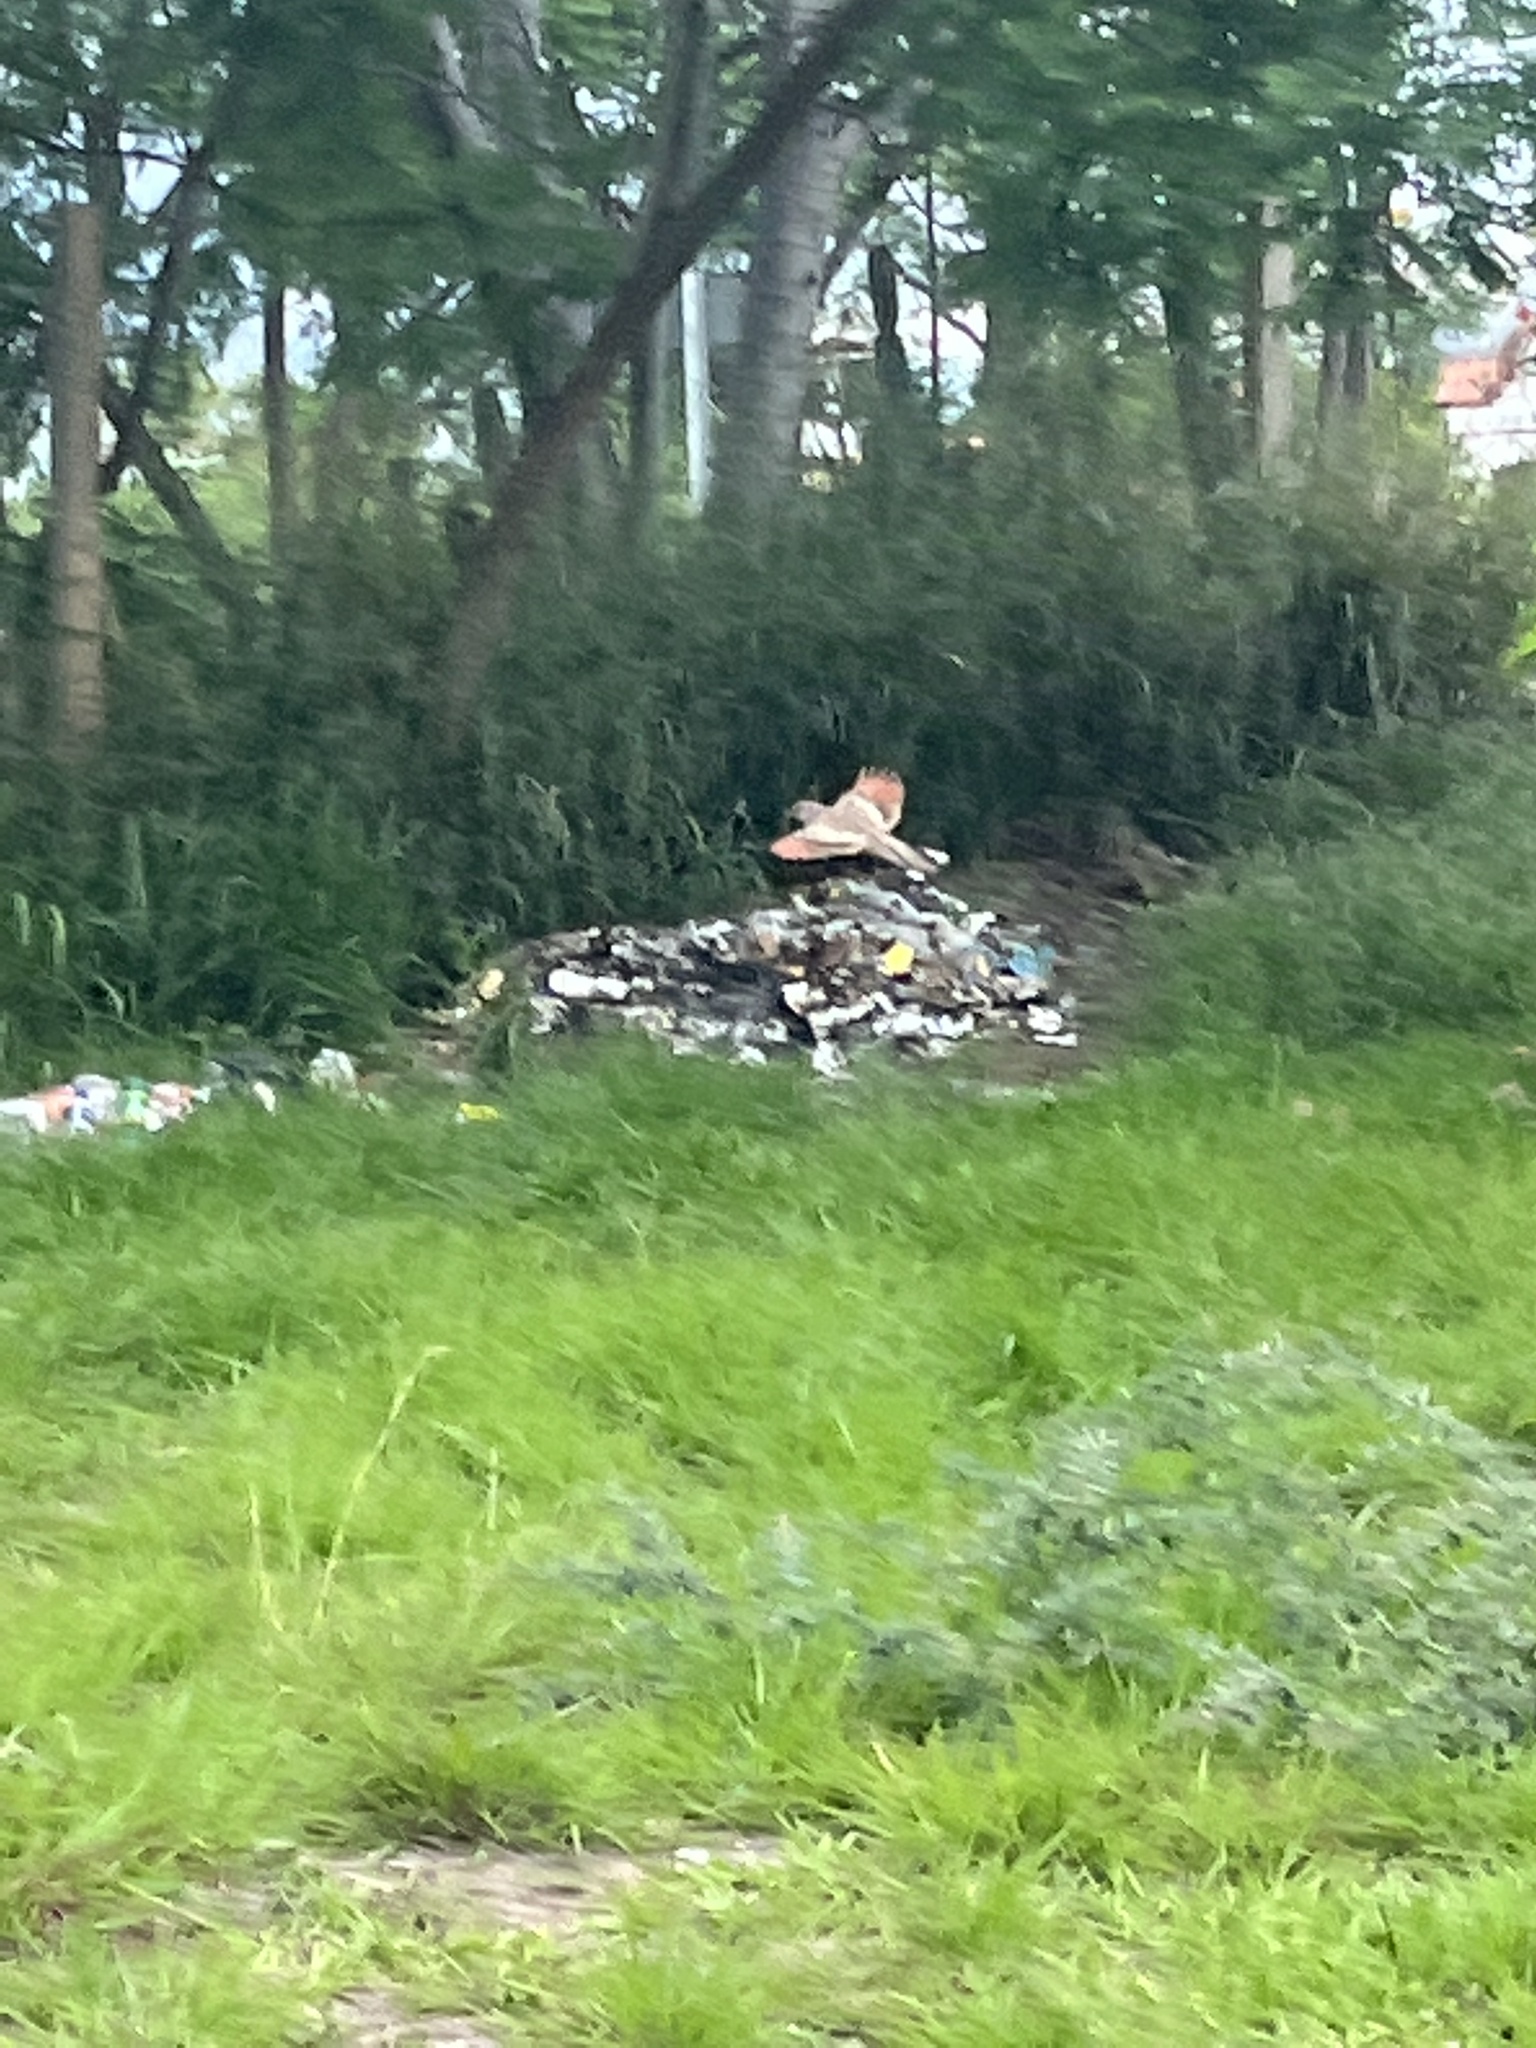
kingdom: Animalia
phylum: Chordata
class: Aves
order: Columbiformes
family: Columbidae
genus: Columbina
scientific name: Columbina inca
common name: Inca dove
